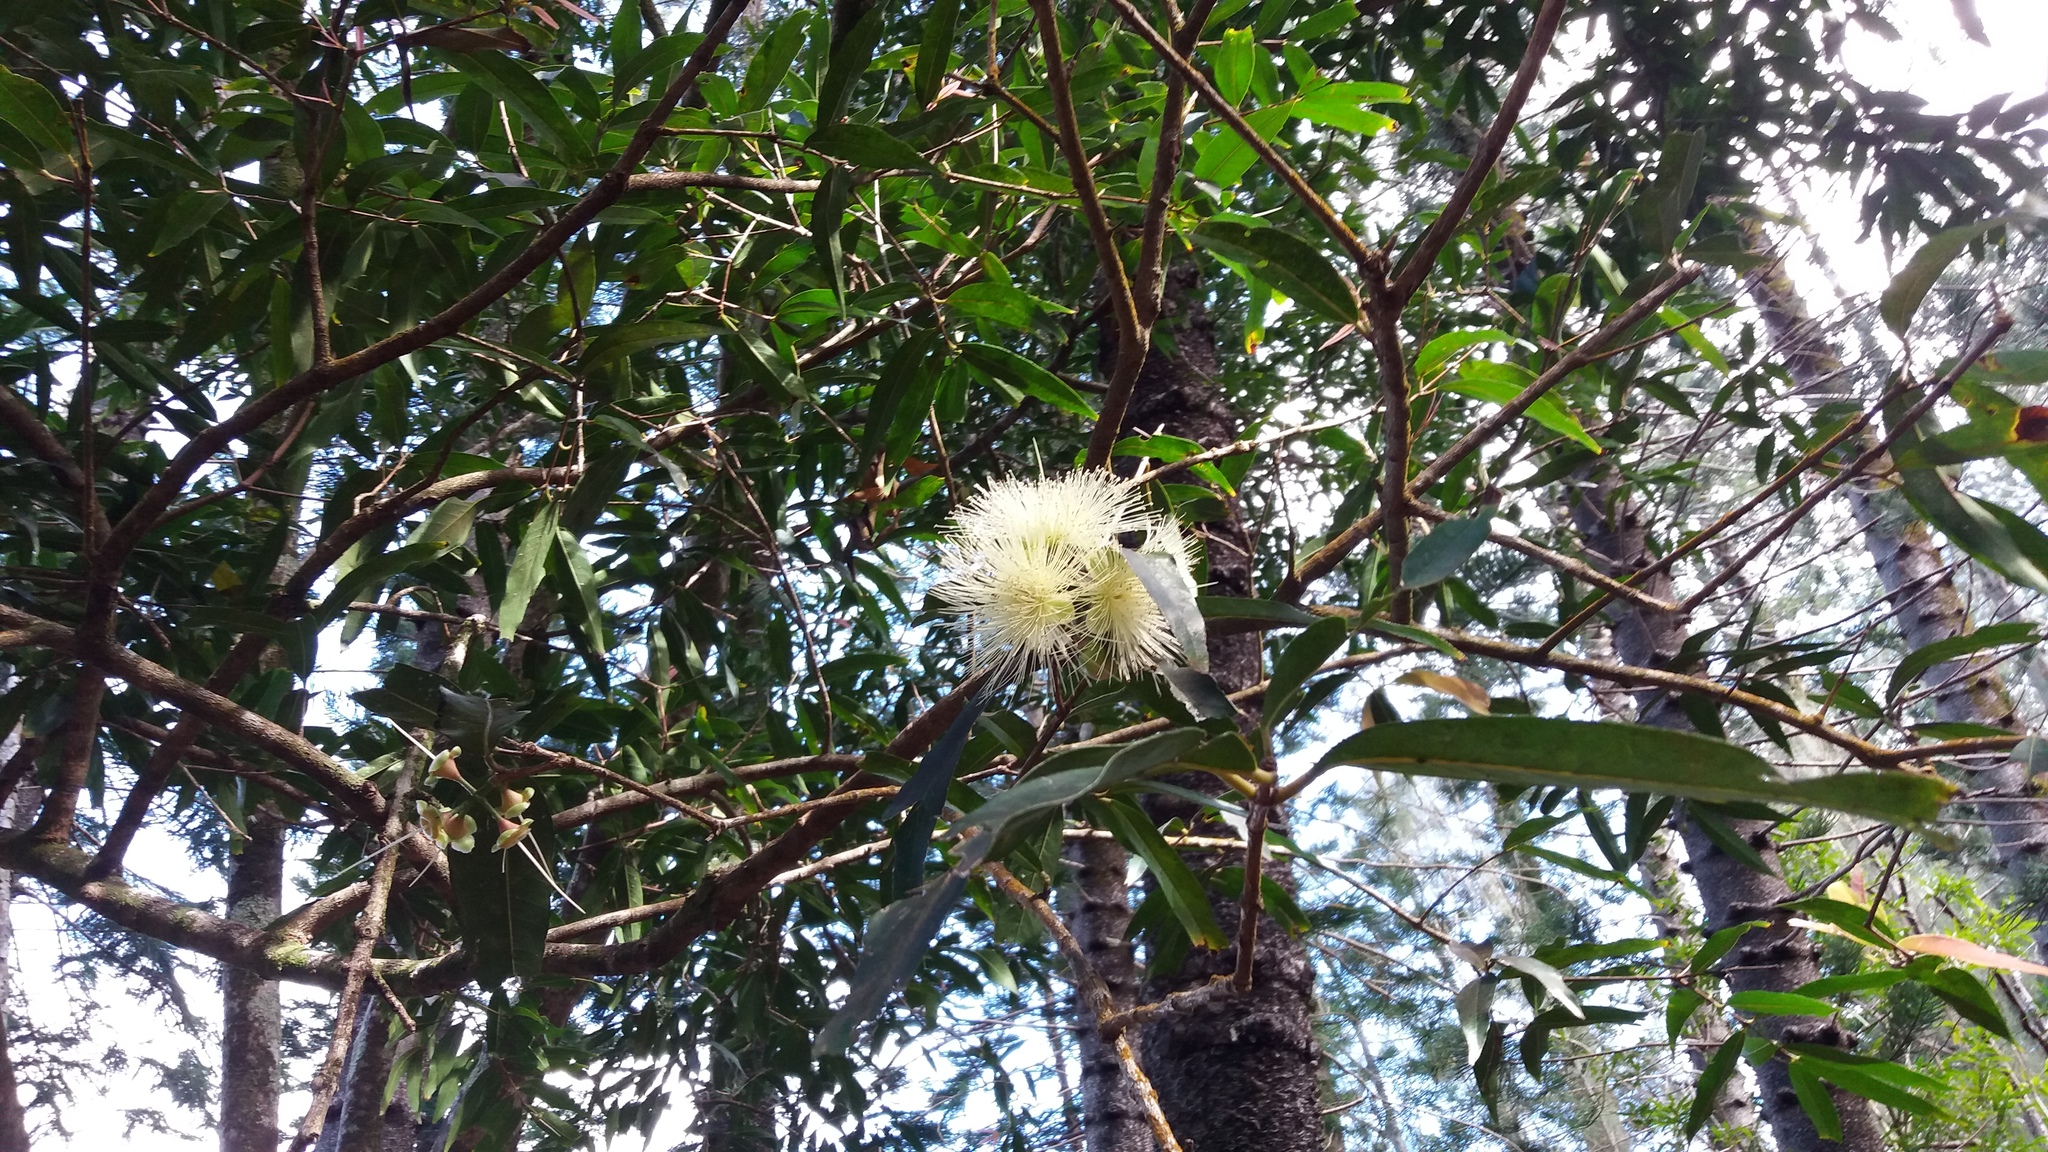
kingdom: Plantae
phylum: Tracheophyta
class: Magnoliopsida
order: Myrtales
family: Myrtaceae
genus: Syzygium
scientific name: Syzygium jambos
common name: Malabar plum
